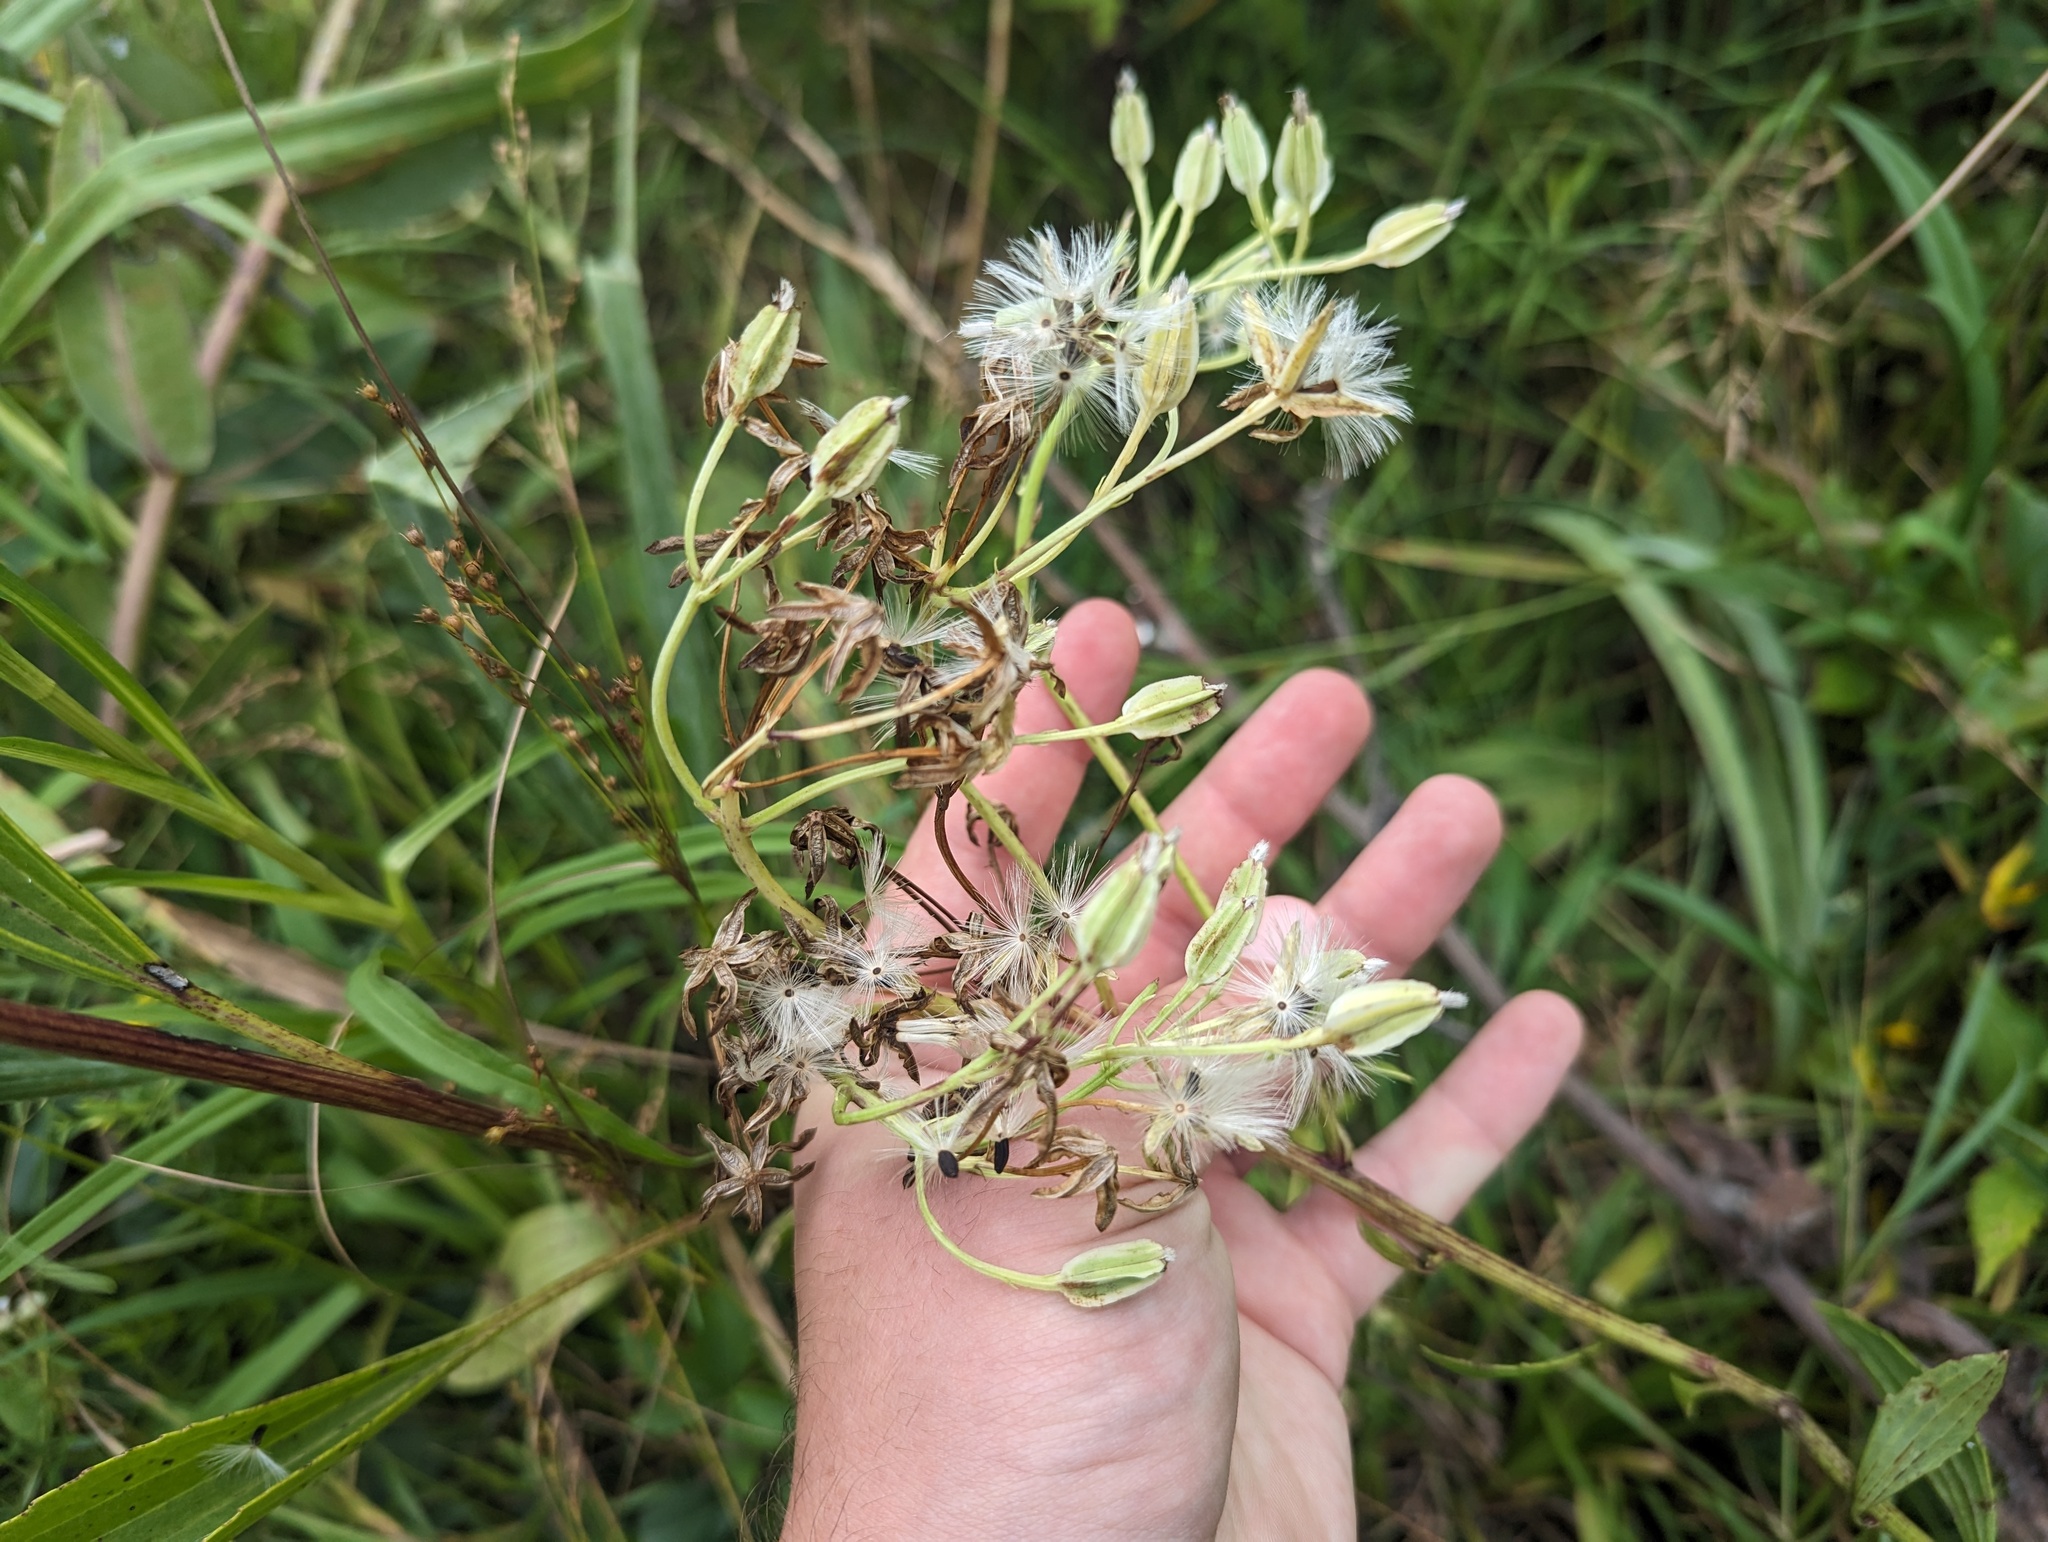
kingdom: Plantae
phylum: Tracheophyta
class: Magnoliopsida
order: Asterales
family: Asteraceae
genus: Arnoglossum
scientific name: Arnoglossum plantagineum
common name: Groove-stemmed indian-plantain
